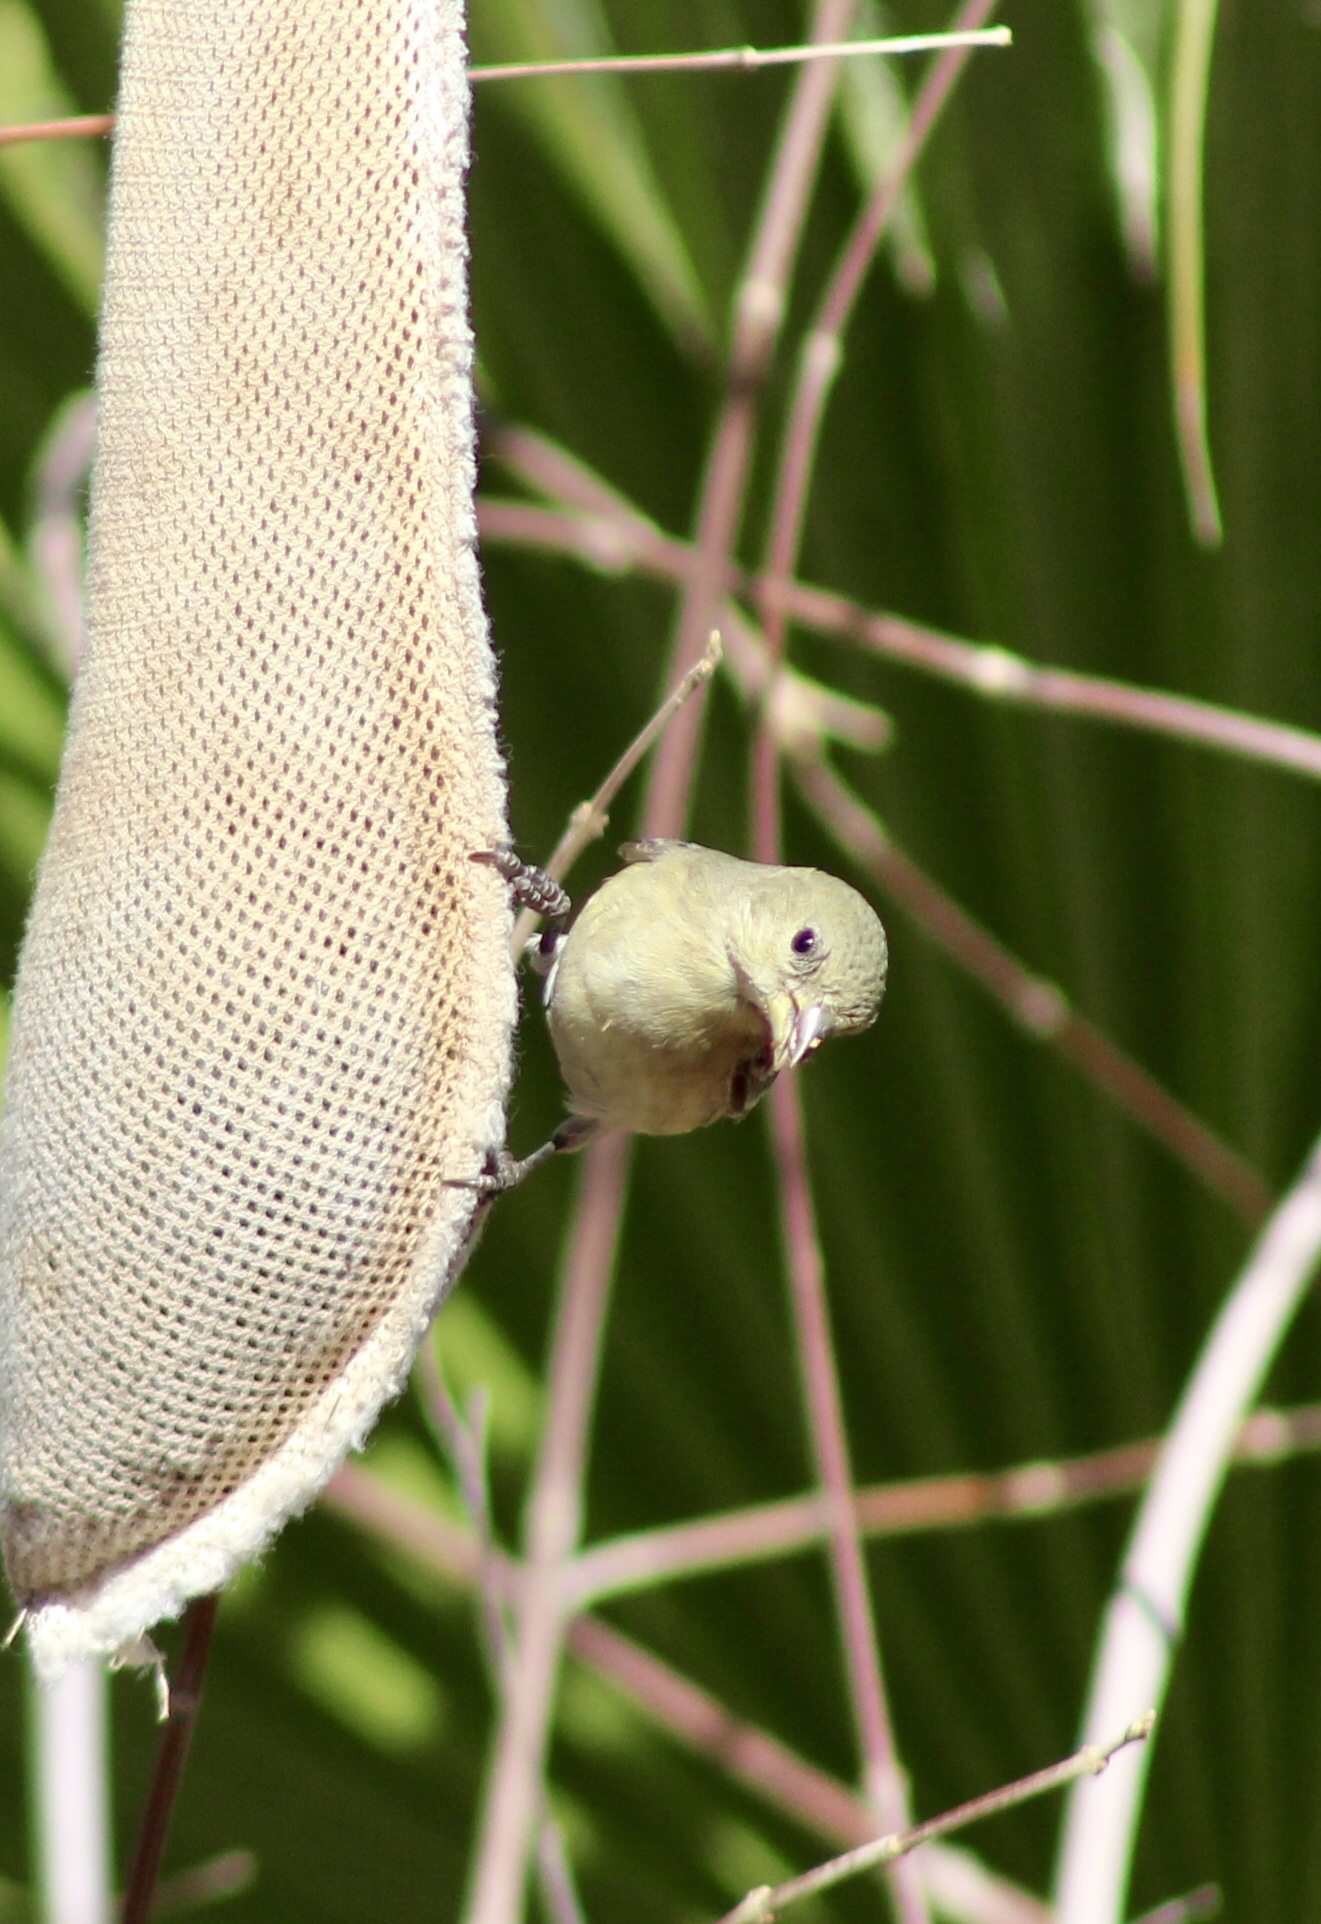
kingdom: Animalia
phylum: Chordata
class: Aves
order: Passeriformes
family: Fringillidae
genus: Spinus
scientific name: Spinus psaltria
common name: Lesser goldfinch
